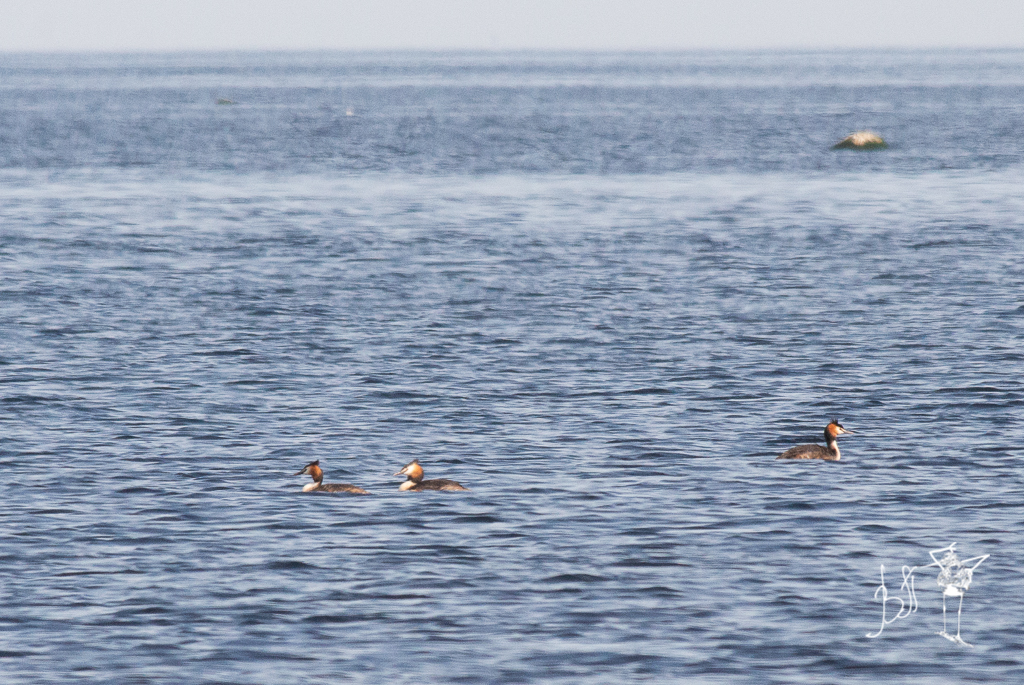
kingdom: Animalia
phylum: Chordata
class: Aves
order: Podicipediformes
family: Podicipedidae
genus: Podiceps
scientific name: Podiceps cristatus
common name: Great crested grebe
